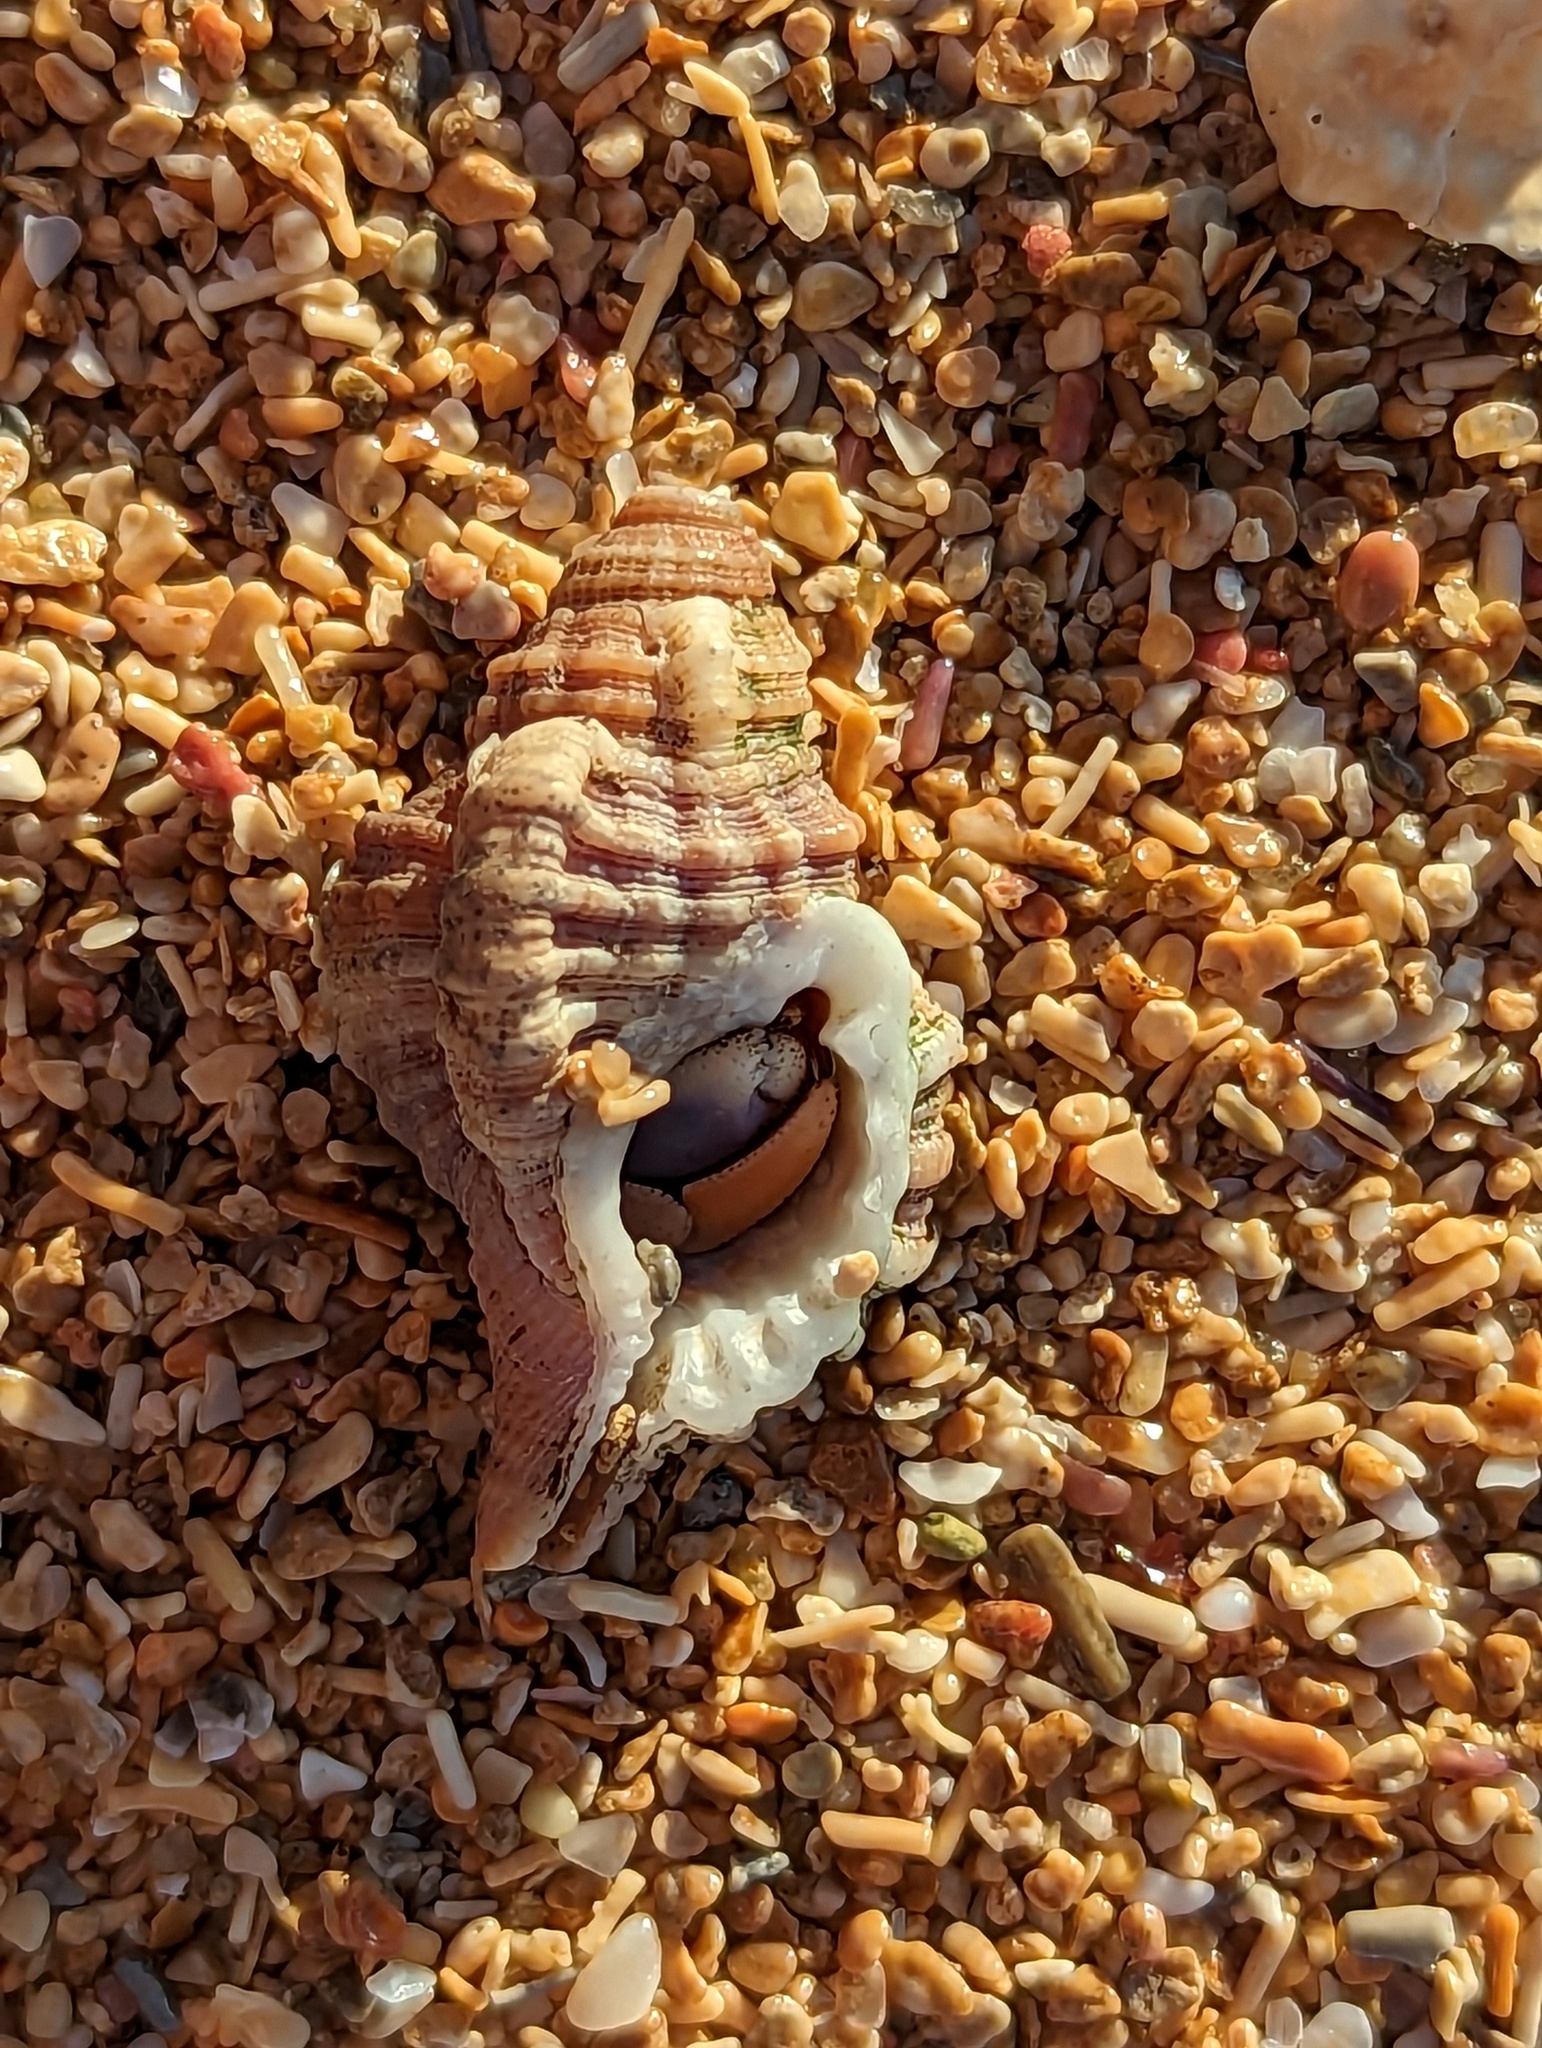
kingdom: Animalia
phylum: Mollusca
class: Gastropoda
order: Littorinimorpha
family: Cymatiidae
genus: Gutturnium
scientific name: Gutturnium muricinum
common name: Knobbed triton
